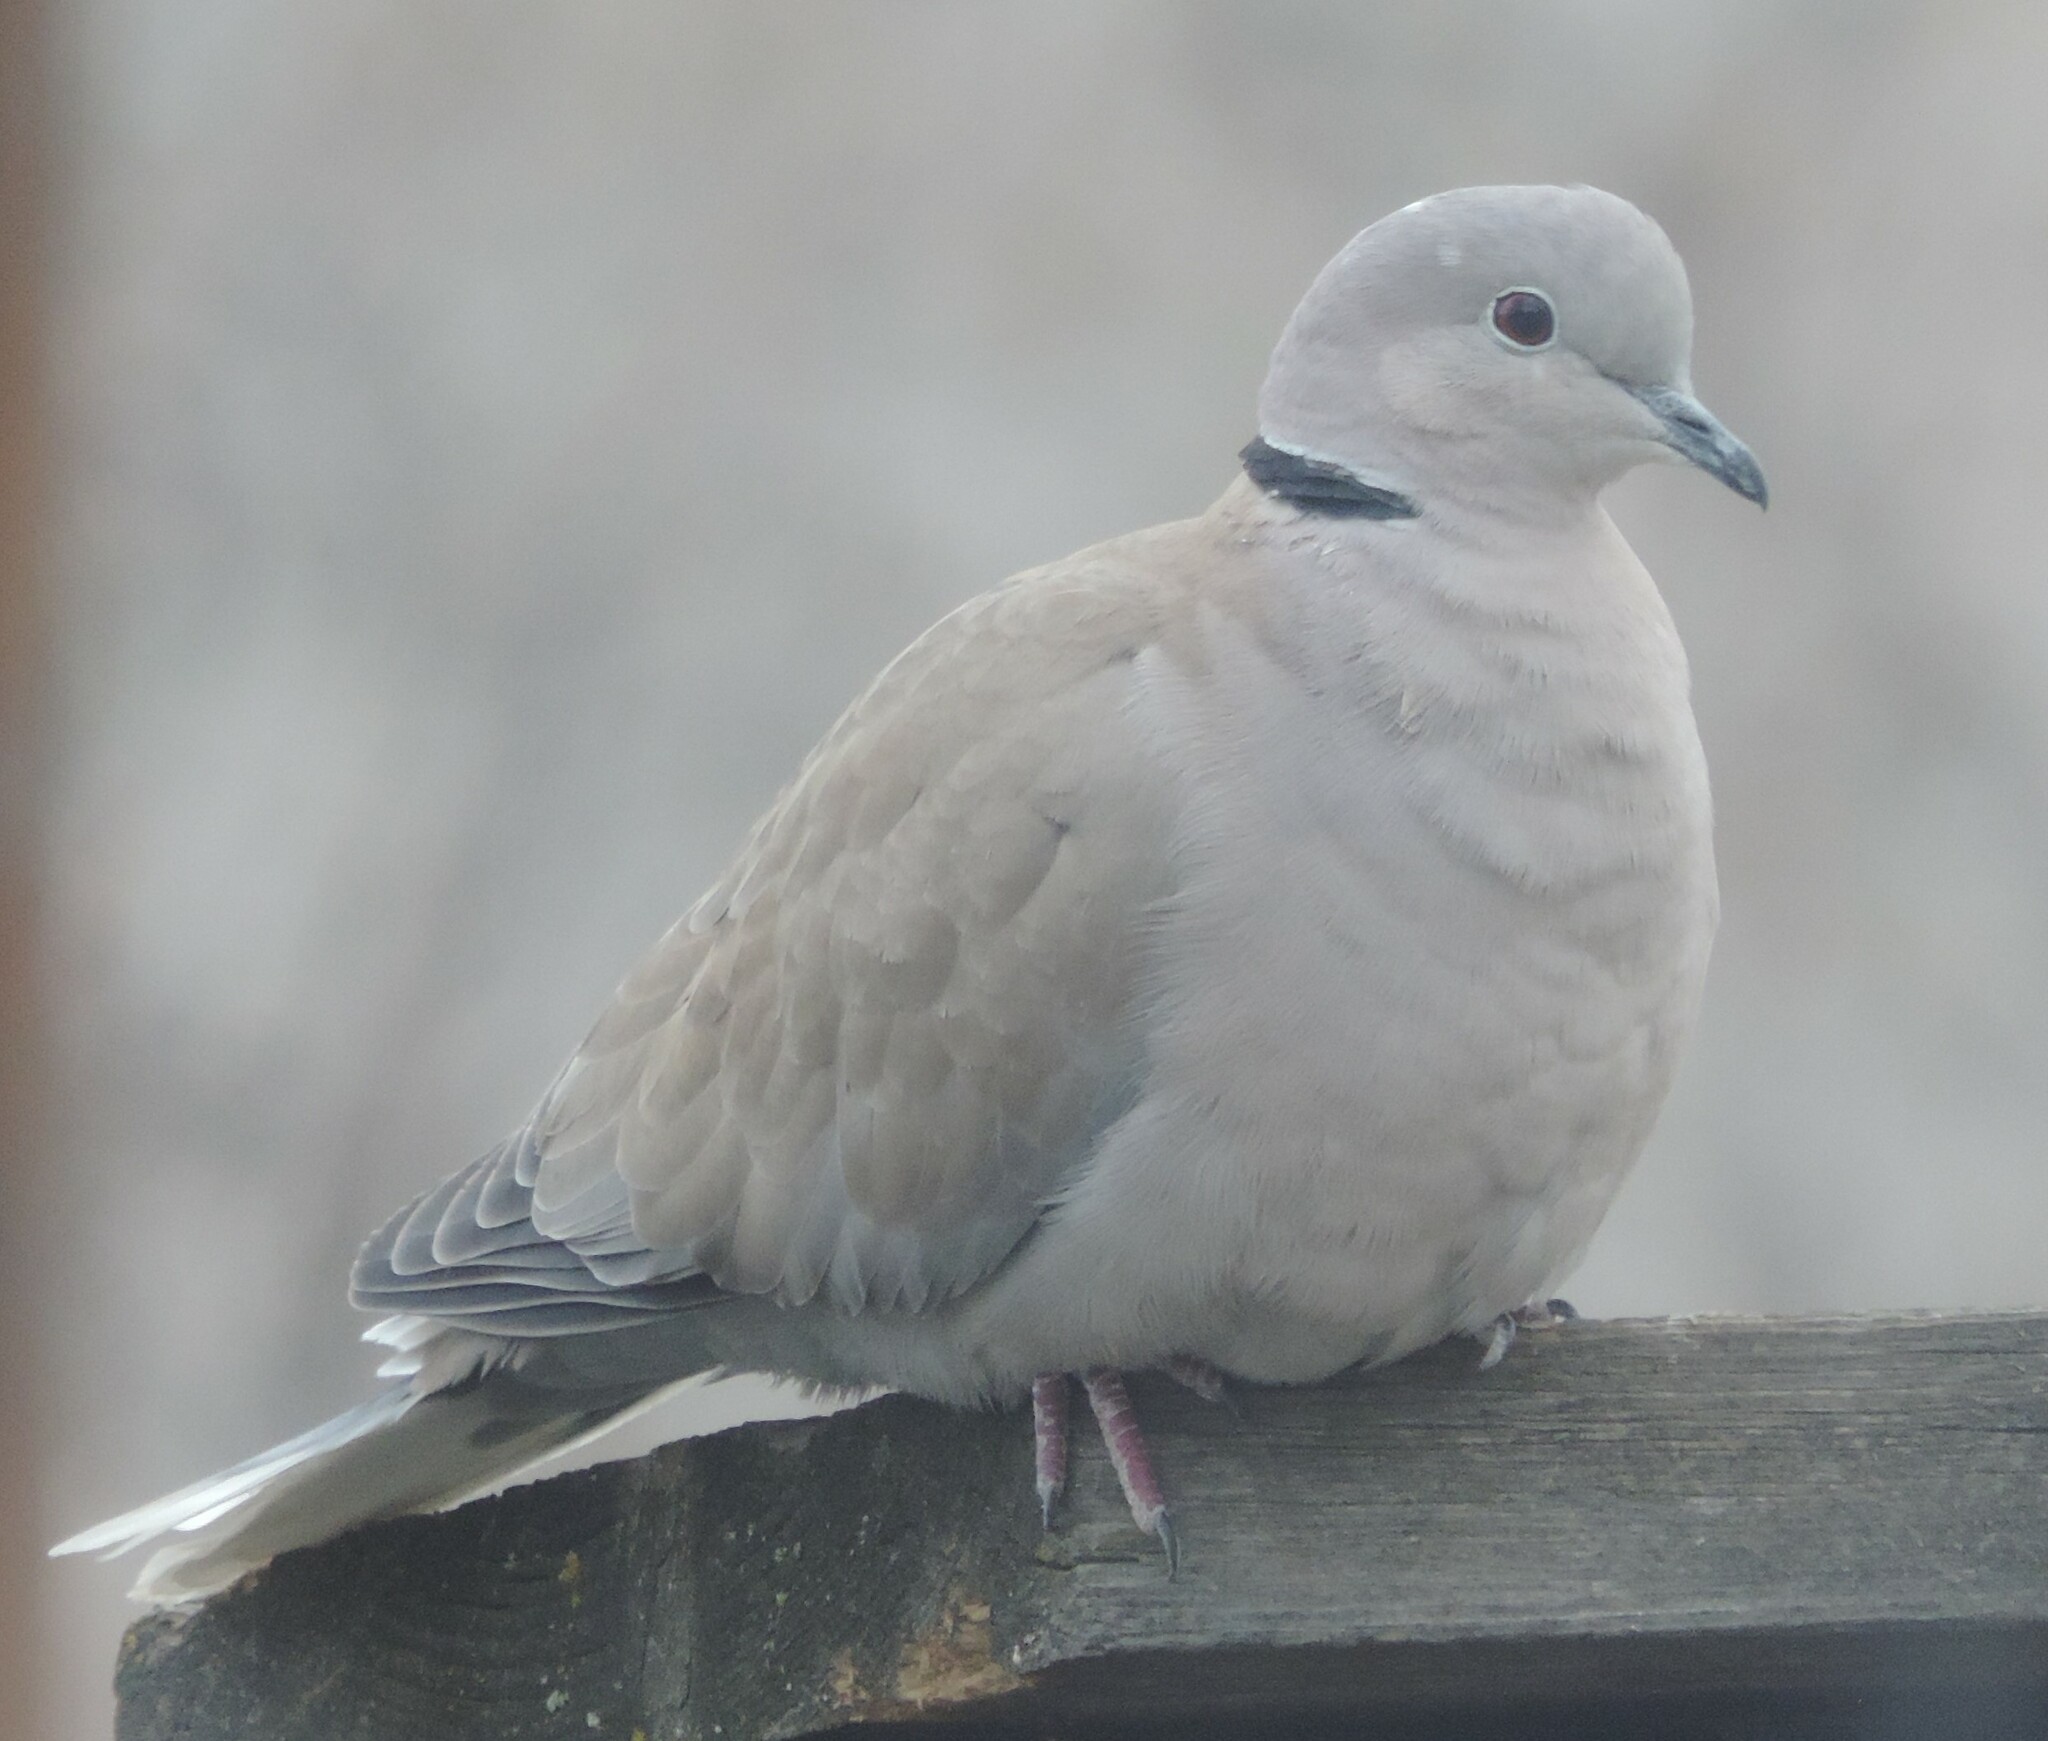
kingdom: Animalia
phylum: Chordata
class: Aves
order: Columbiformes
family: Columbidae
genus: Streptopelia
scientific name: Streptopelia decaocto
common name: Eurasian collared dove
